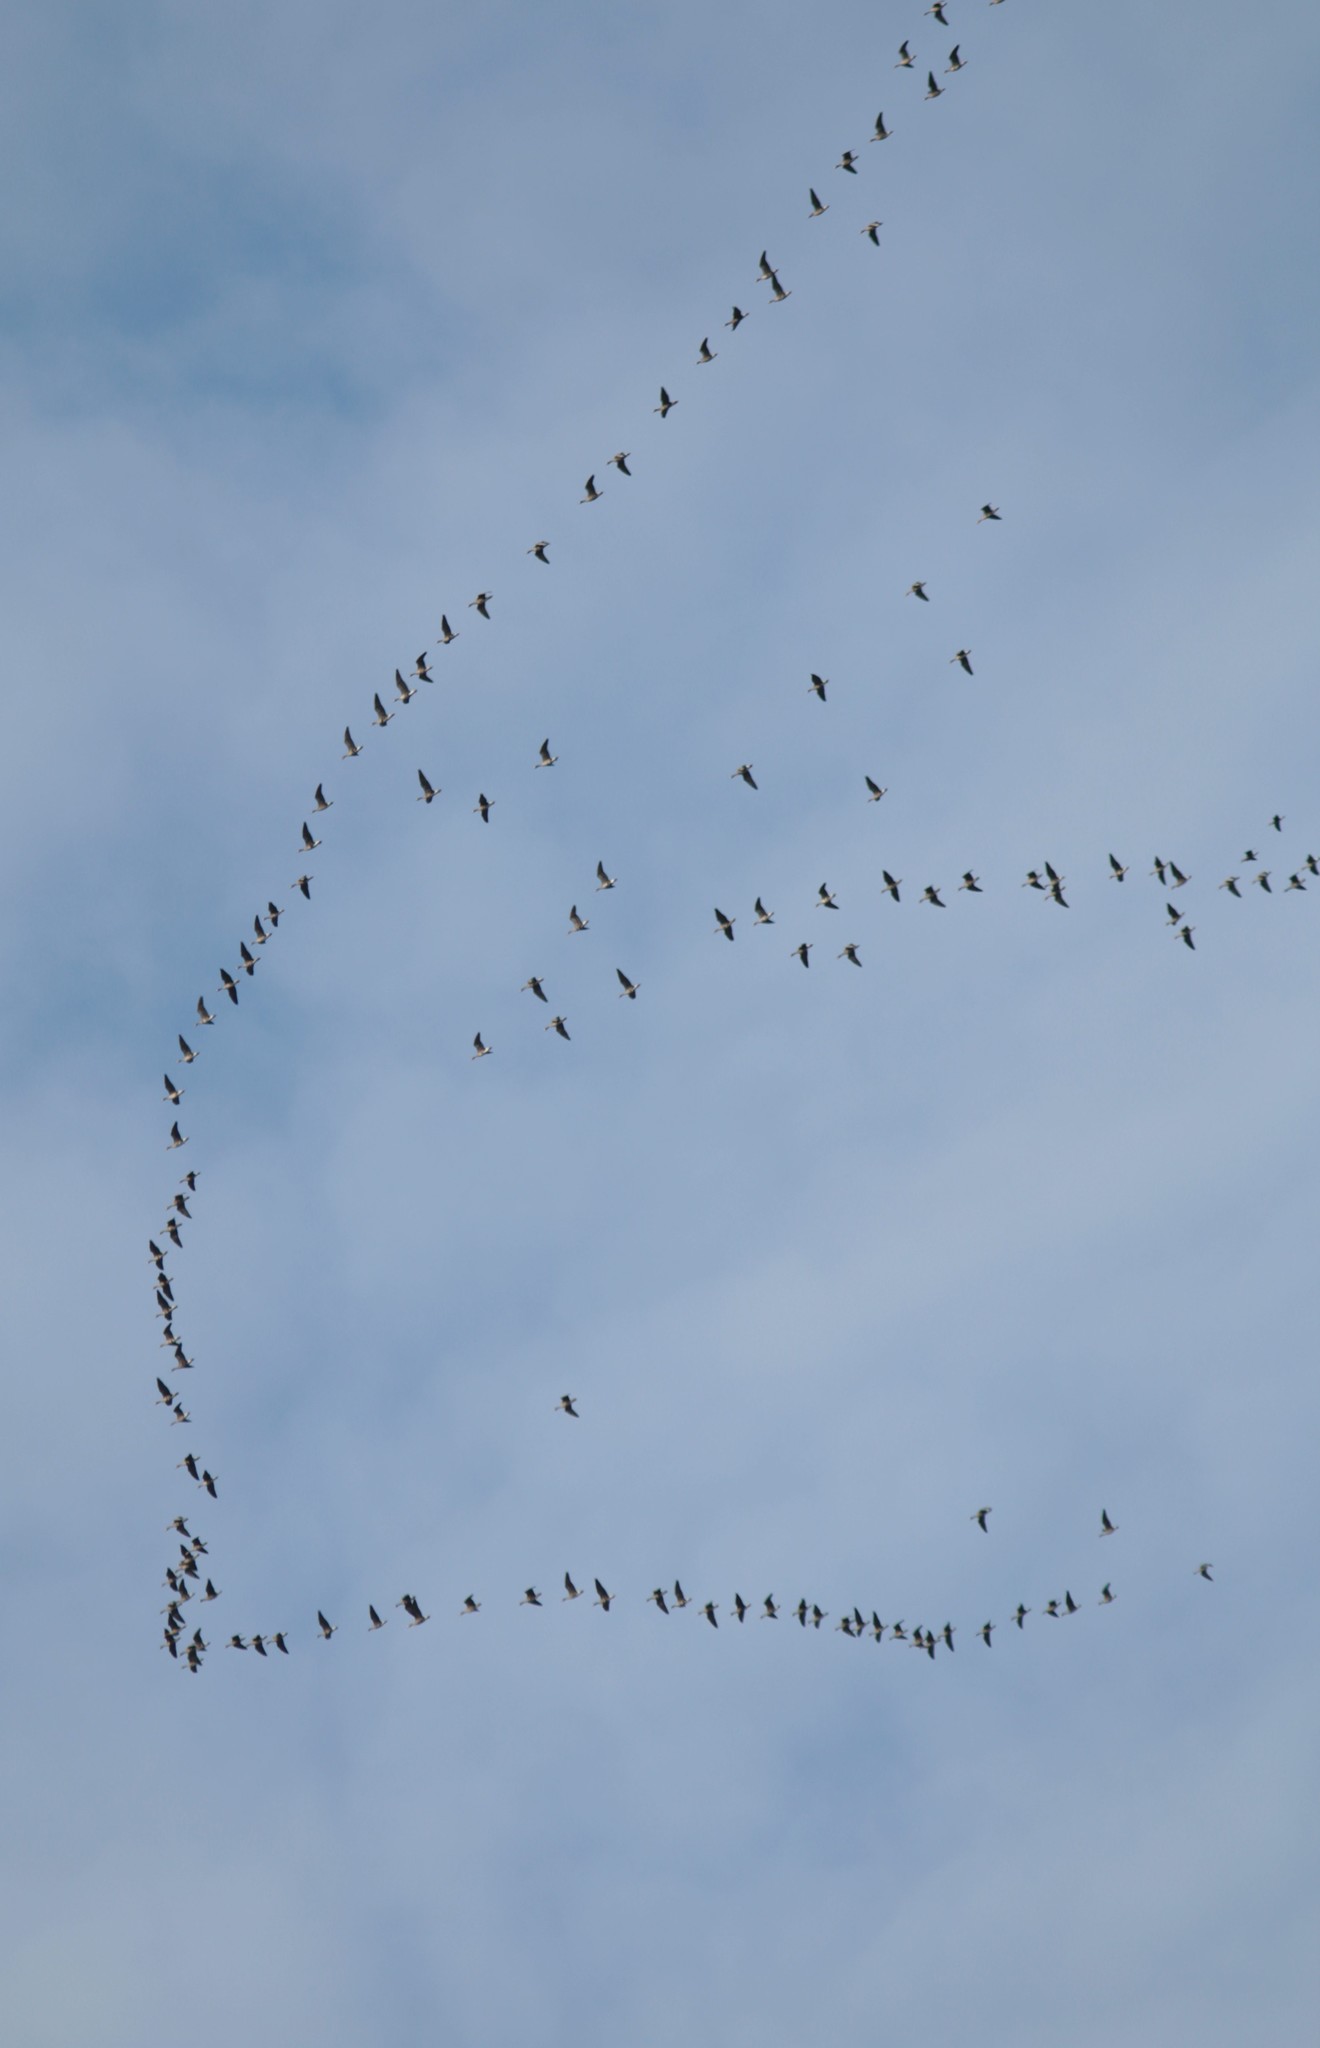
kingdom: Animalia
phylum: Chordata
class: Aves
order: Anseriformes
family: Anatidae
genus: Anser
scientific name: Anser albifrons
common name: Greater white-fronted goose
